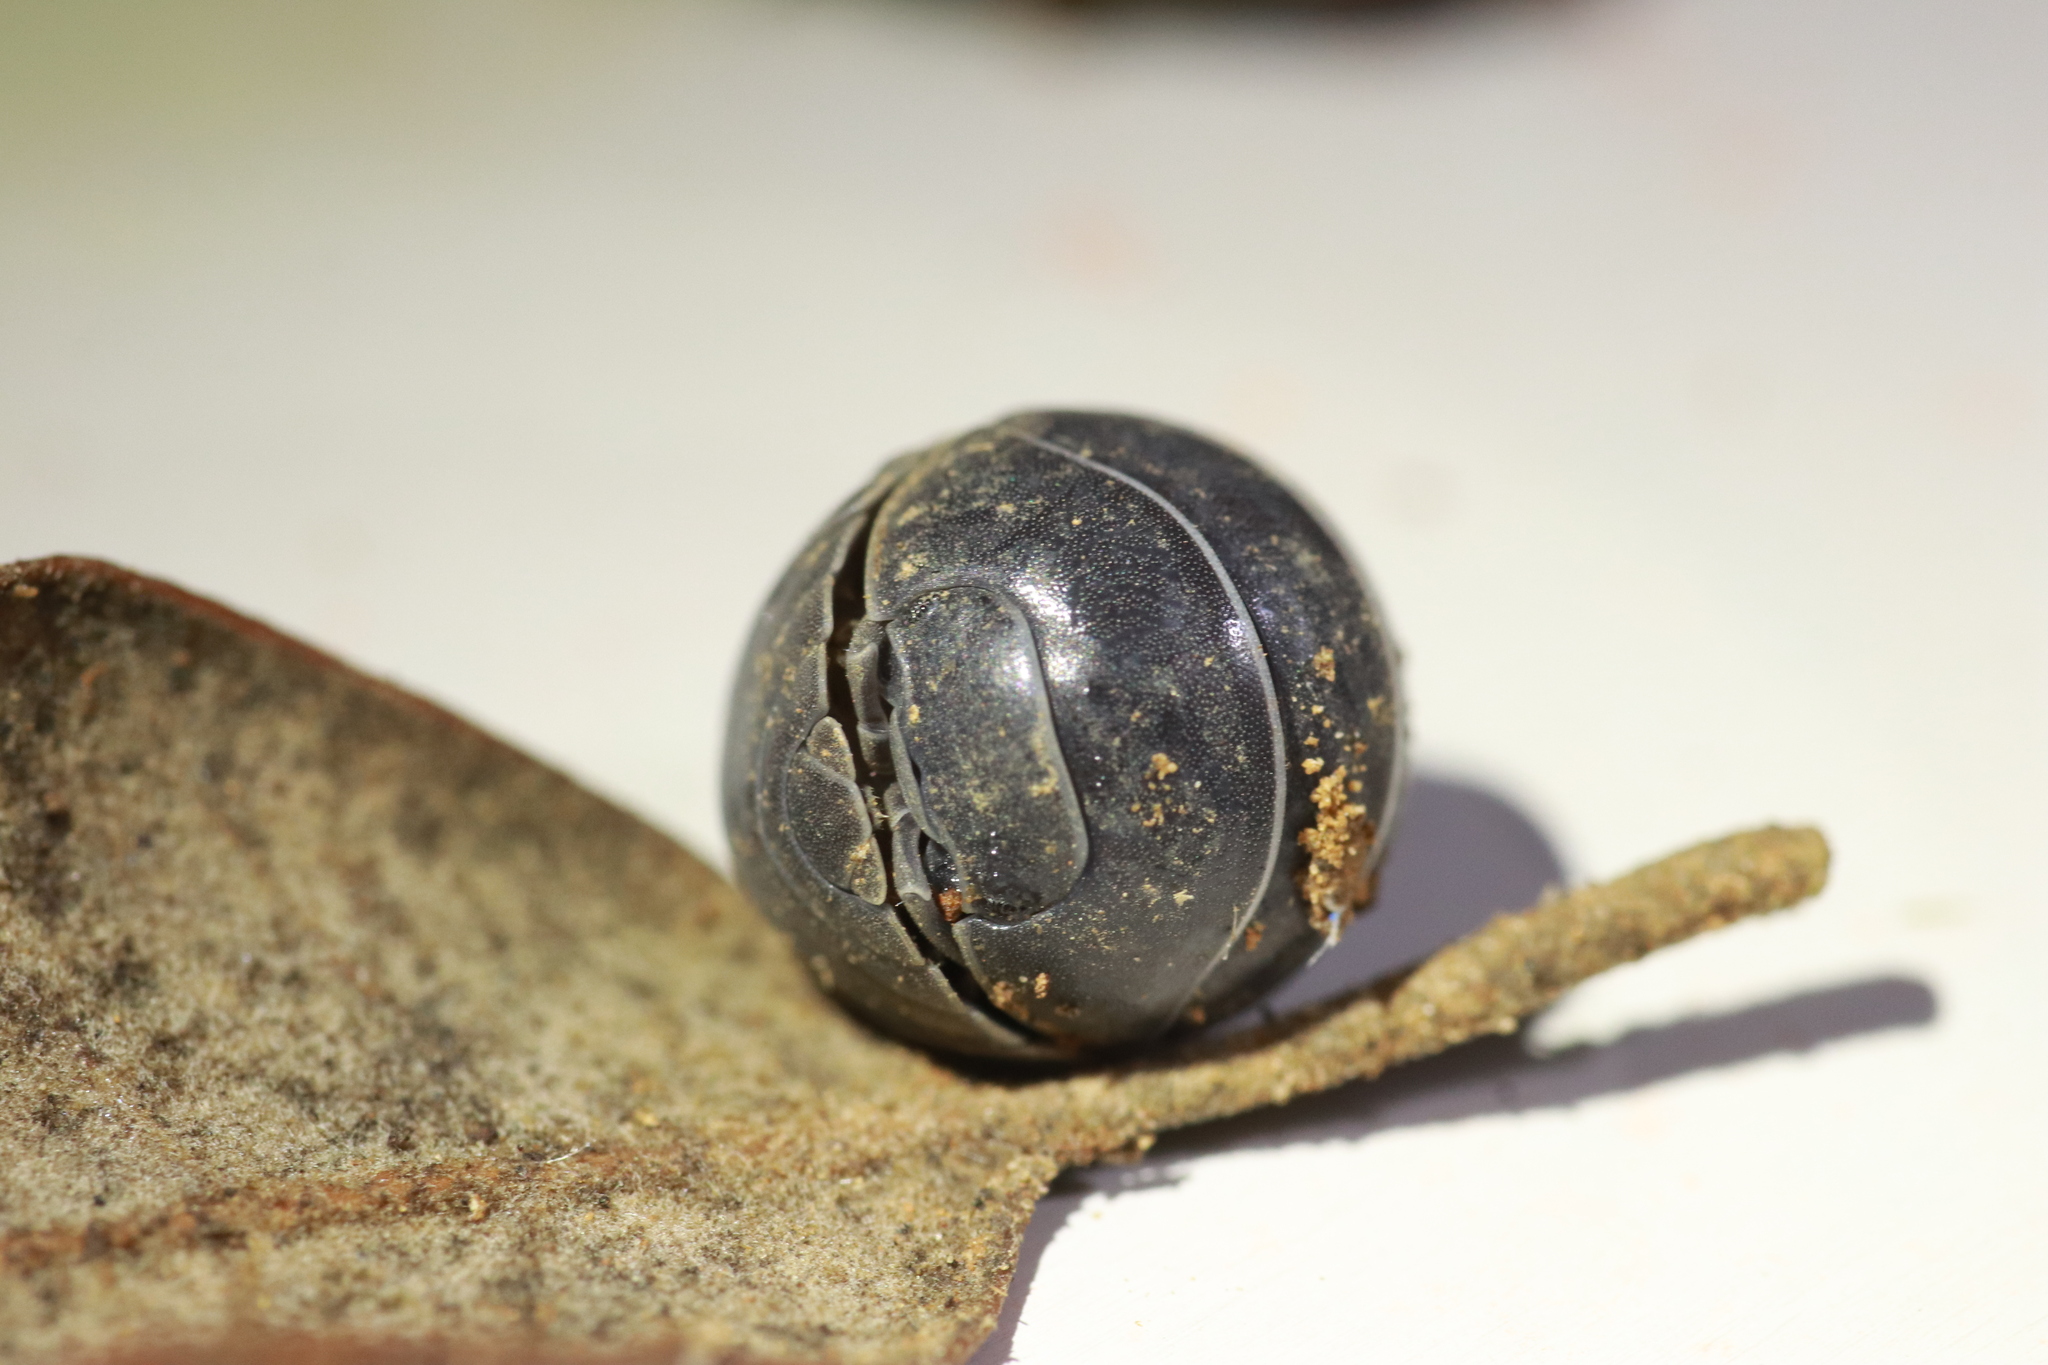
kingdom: Animalia
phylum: Arthropoda
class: Malacostraca
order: Isopoda
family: Armadillidiidae
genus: Armadillidium
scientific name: Armadillidium vulgare
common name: Common pill woodlouse
